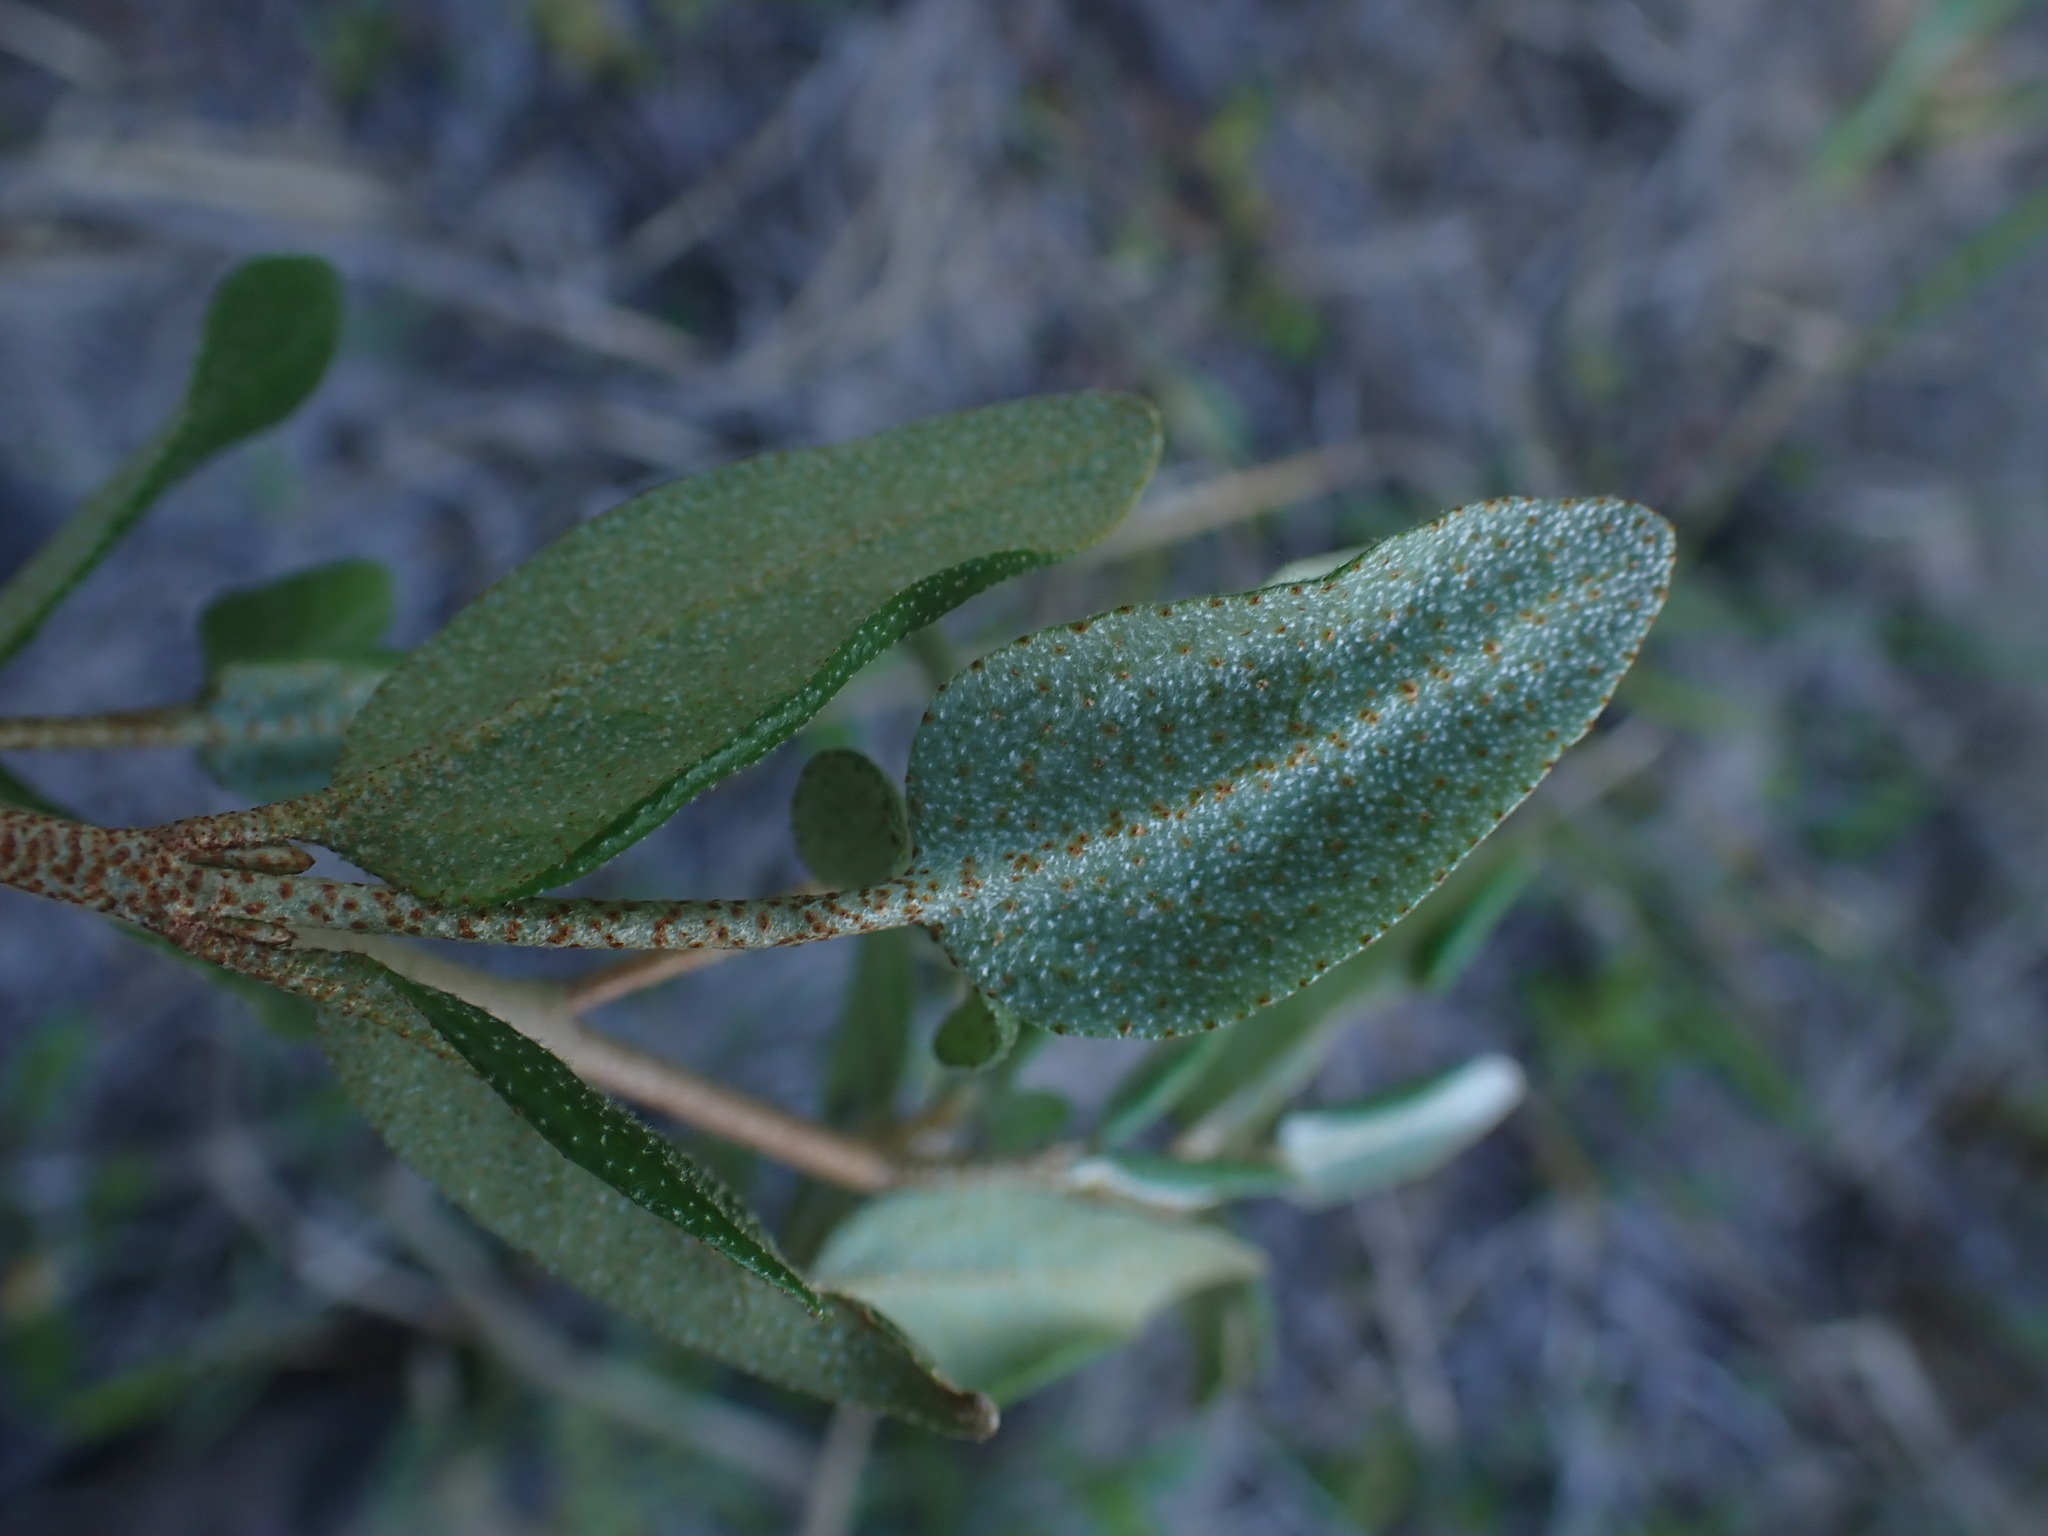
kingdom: Plantae
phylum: Tracheophyta
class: Magnoliopsida
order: Rosales
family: Elaeagnaceae
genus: Shepherdia
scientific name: Shepherdia canadensis
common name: Soapberry
